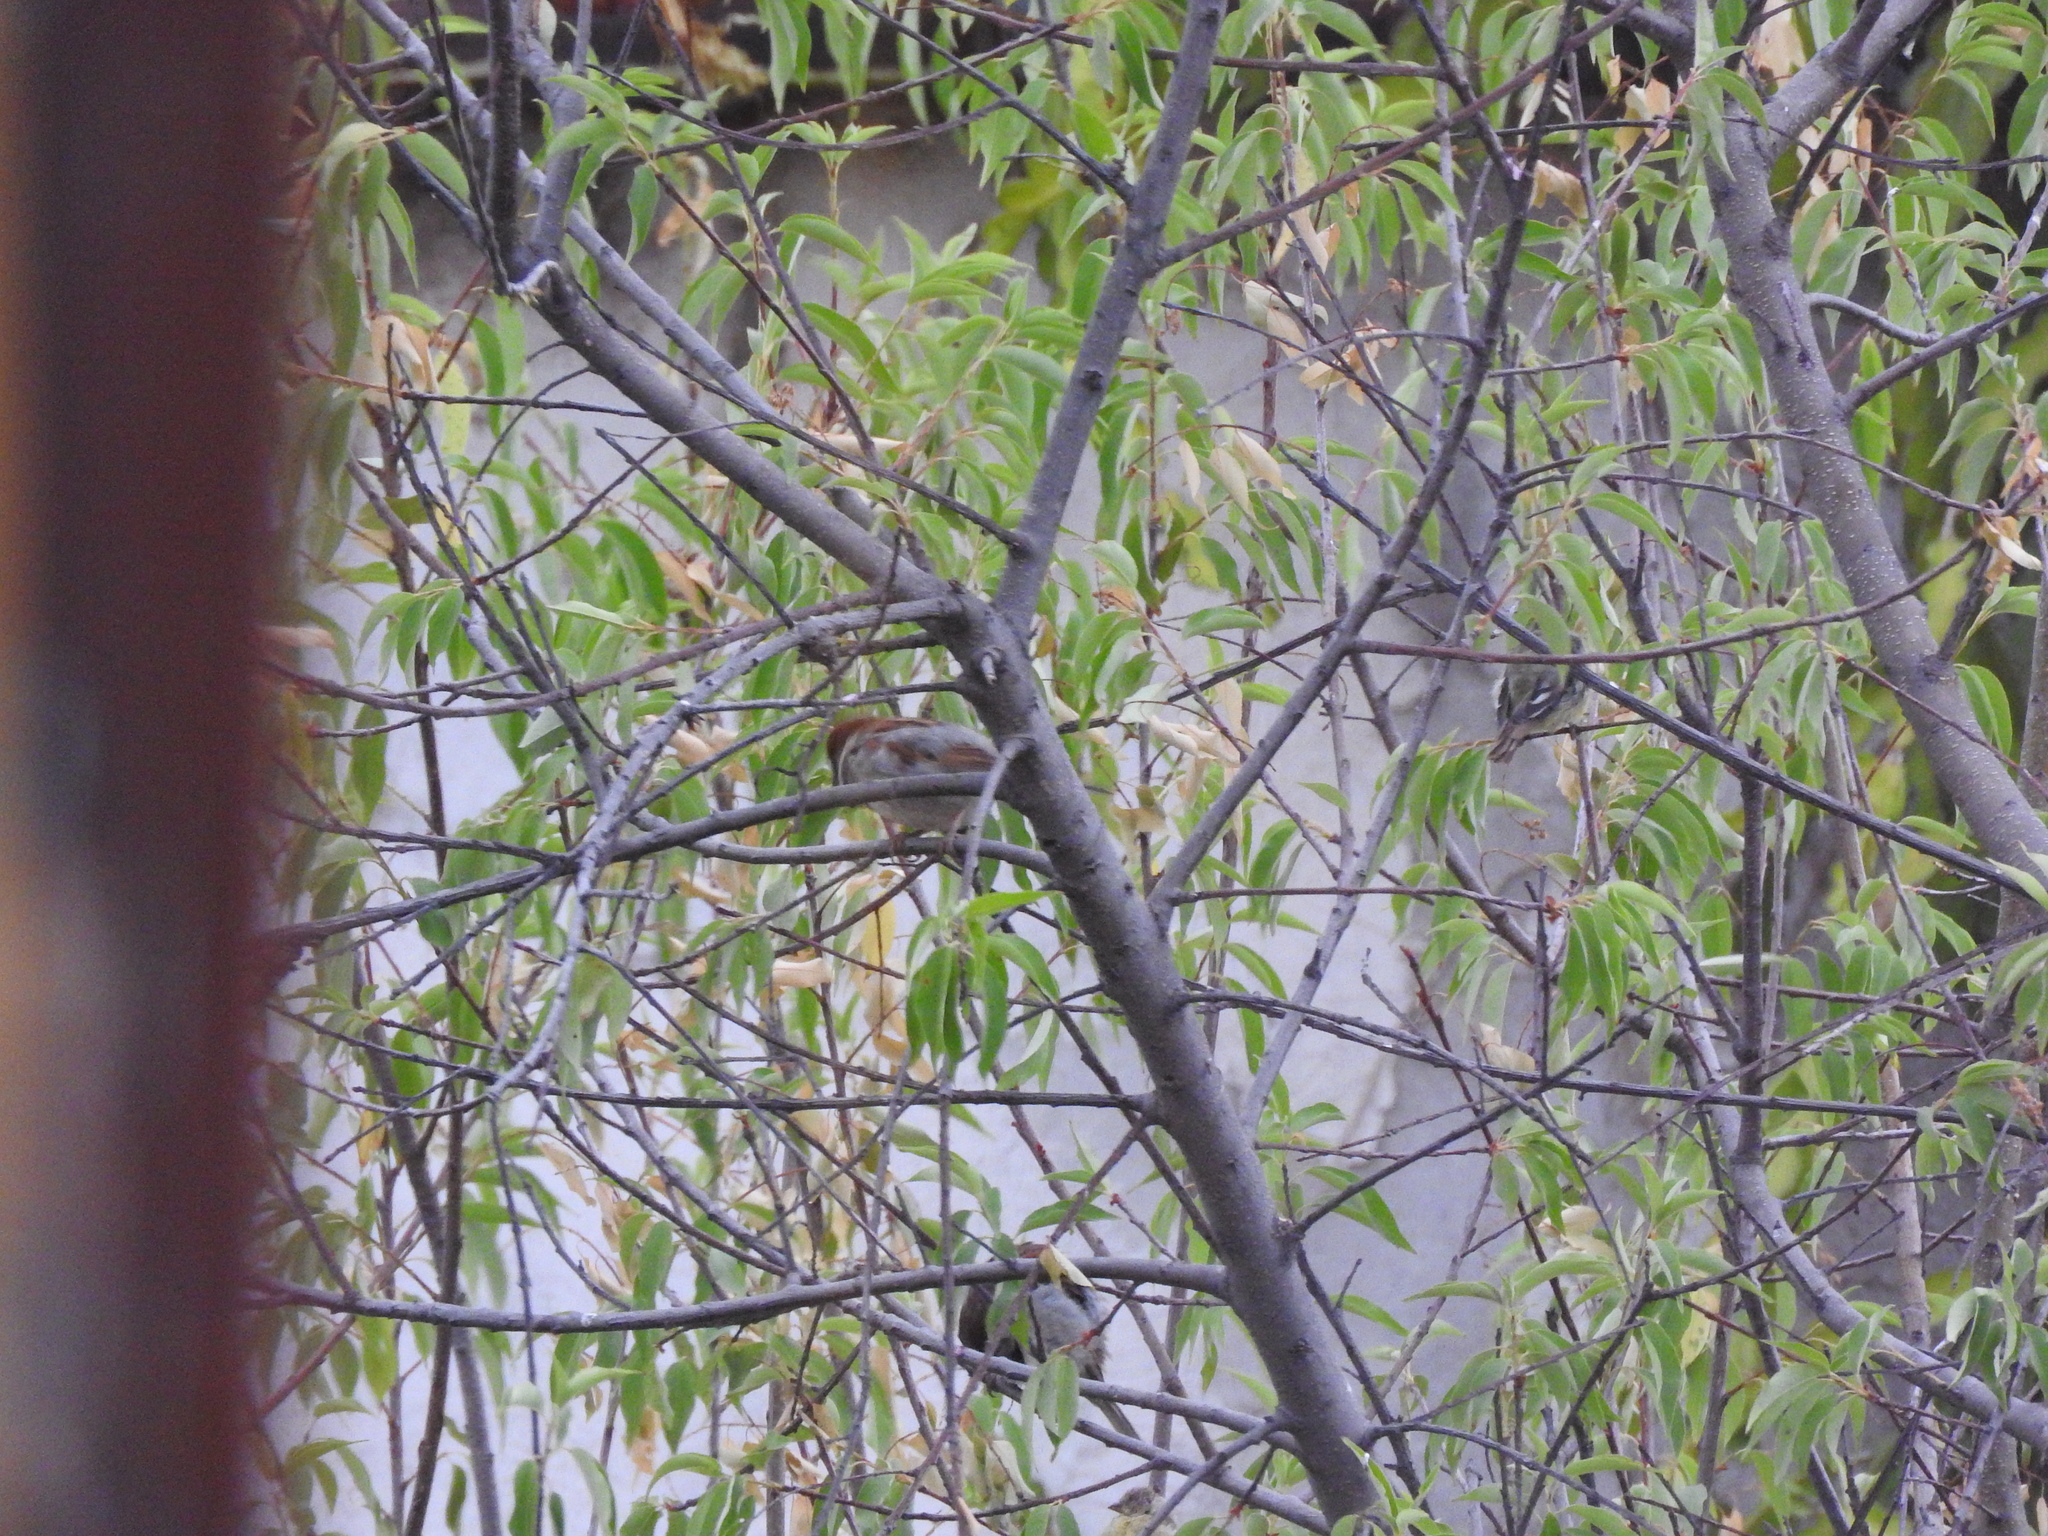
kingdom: Animalia
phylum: Chordata
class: Aves
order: Passeriformes
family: Passeridae
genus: Passer
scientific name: Passer domesticus
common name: House sparrow
